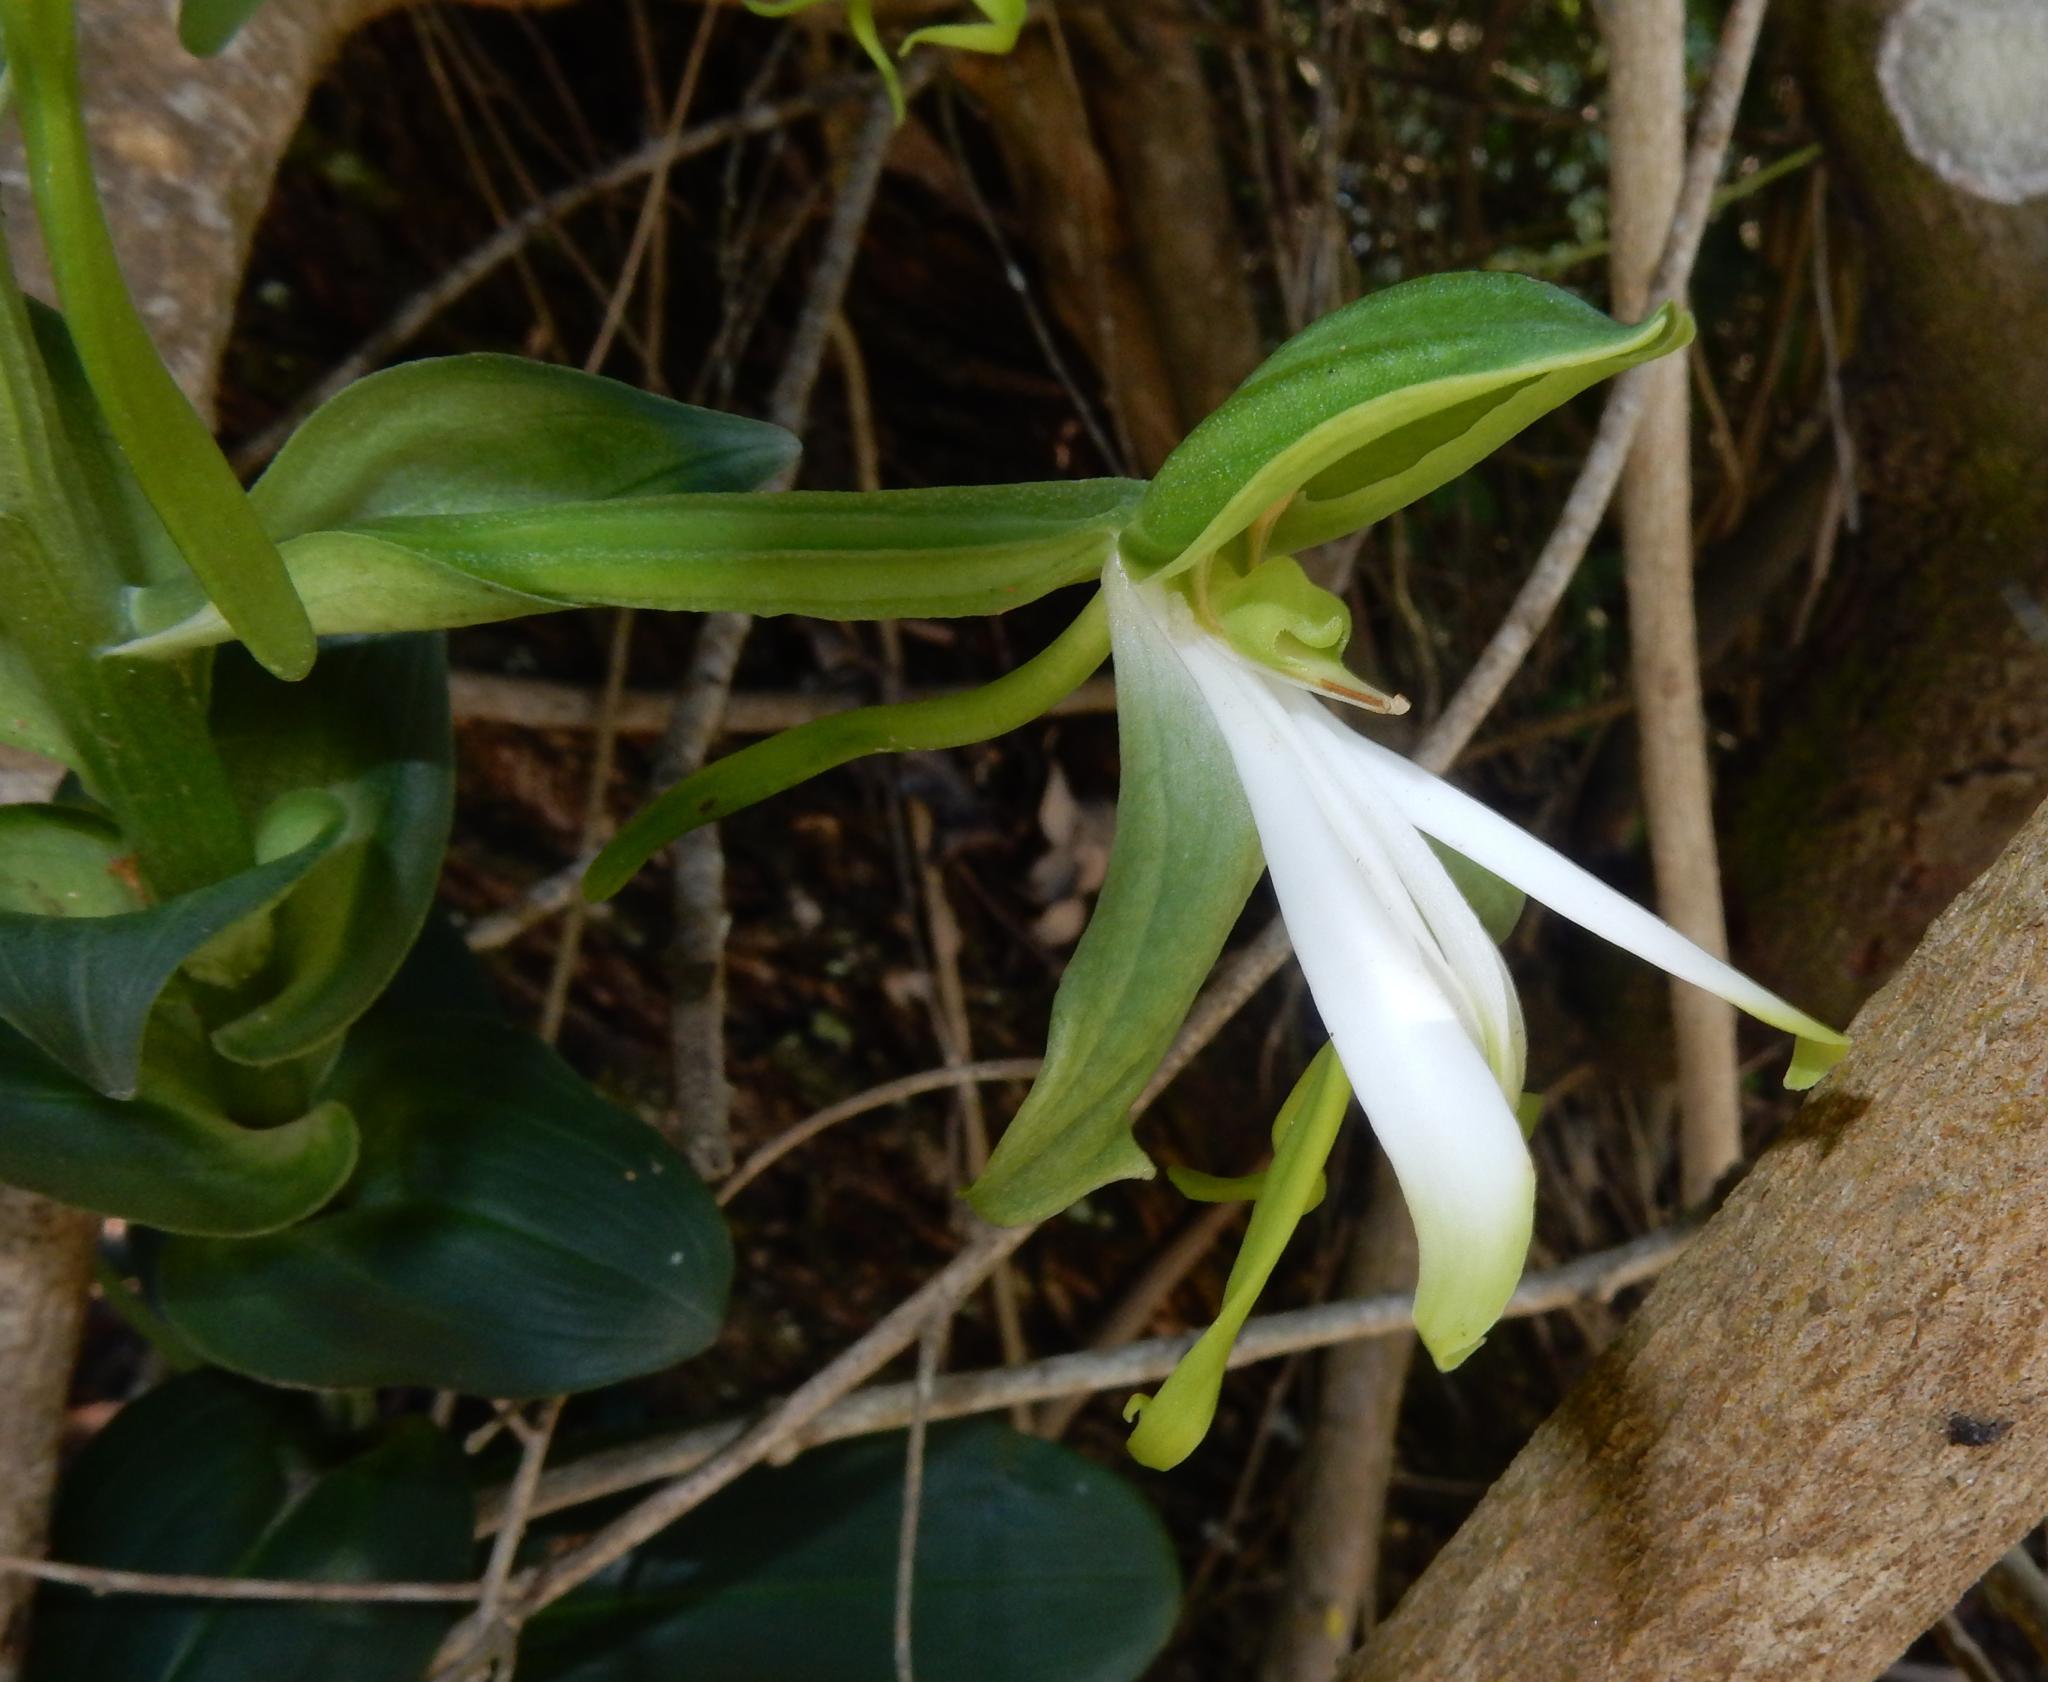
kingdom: Plantae
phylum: Tracheophyta
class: Liliopsida
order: Asparagales
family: Orchidaceae
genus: Bonatea
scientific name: Bonatea speciosa
